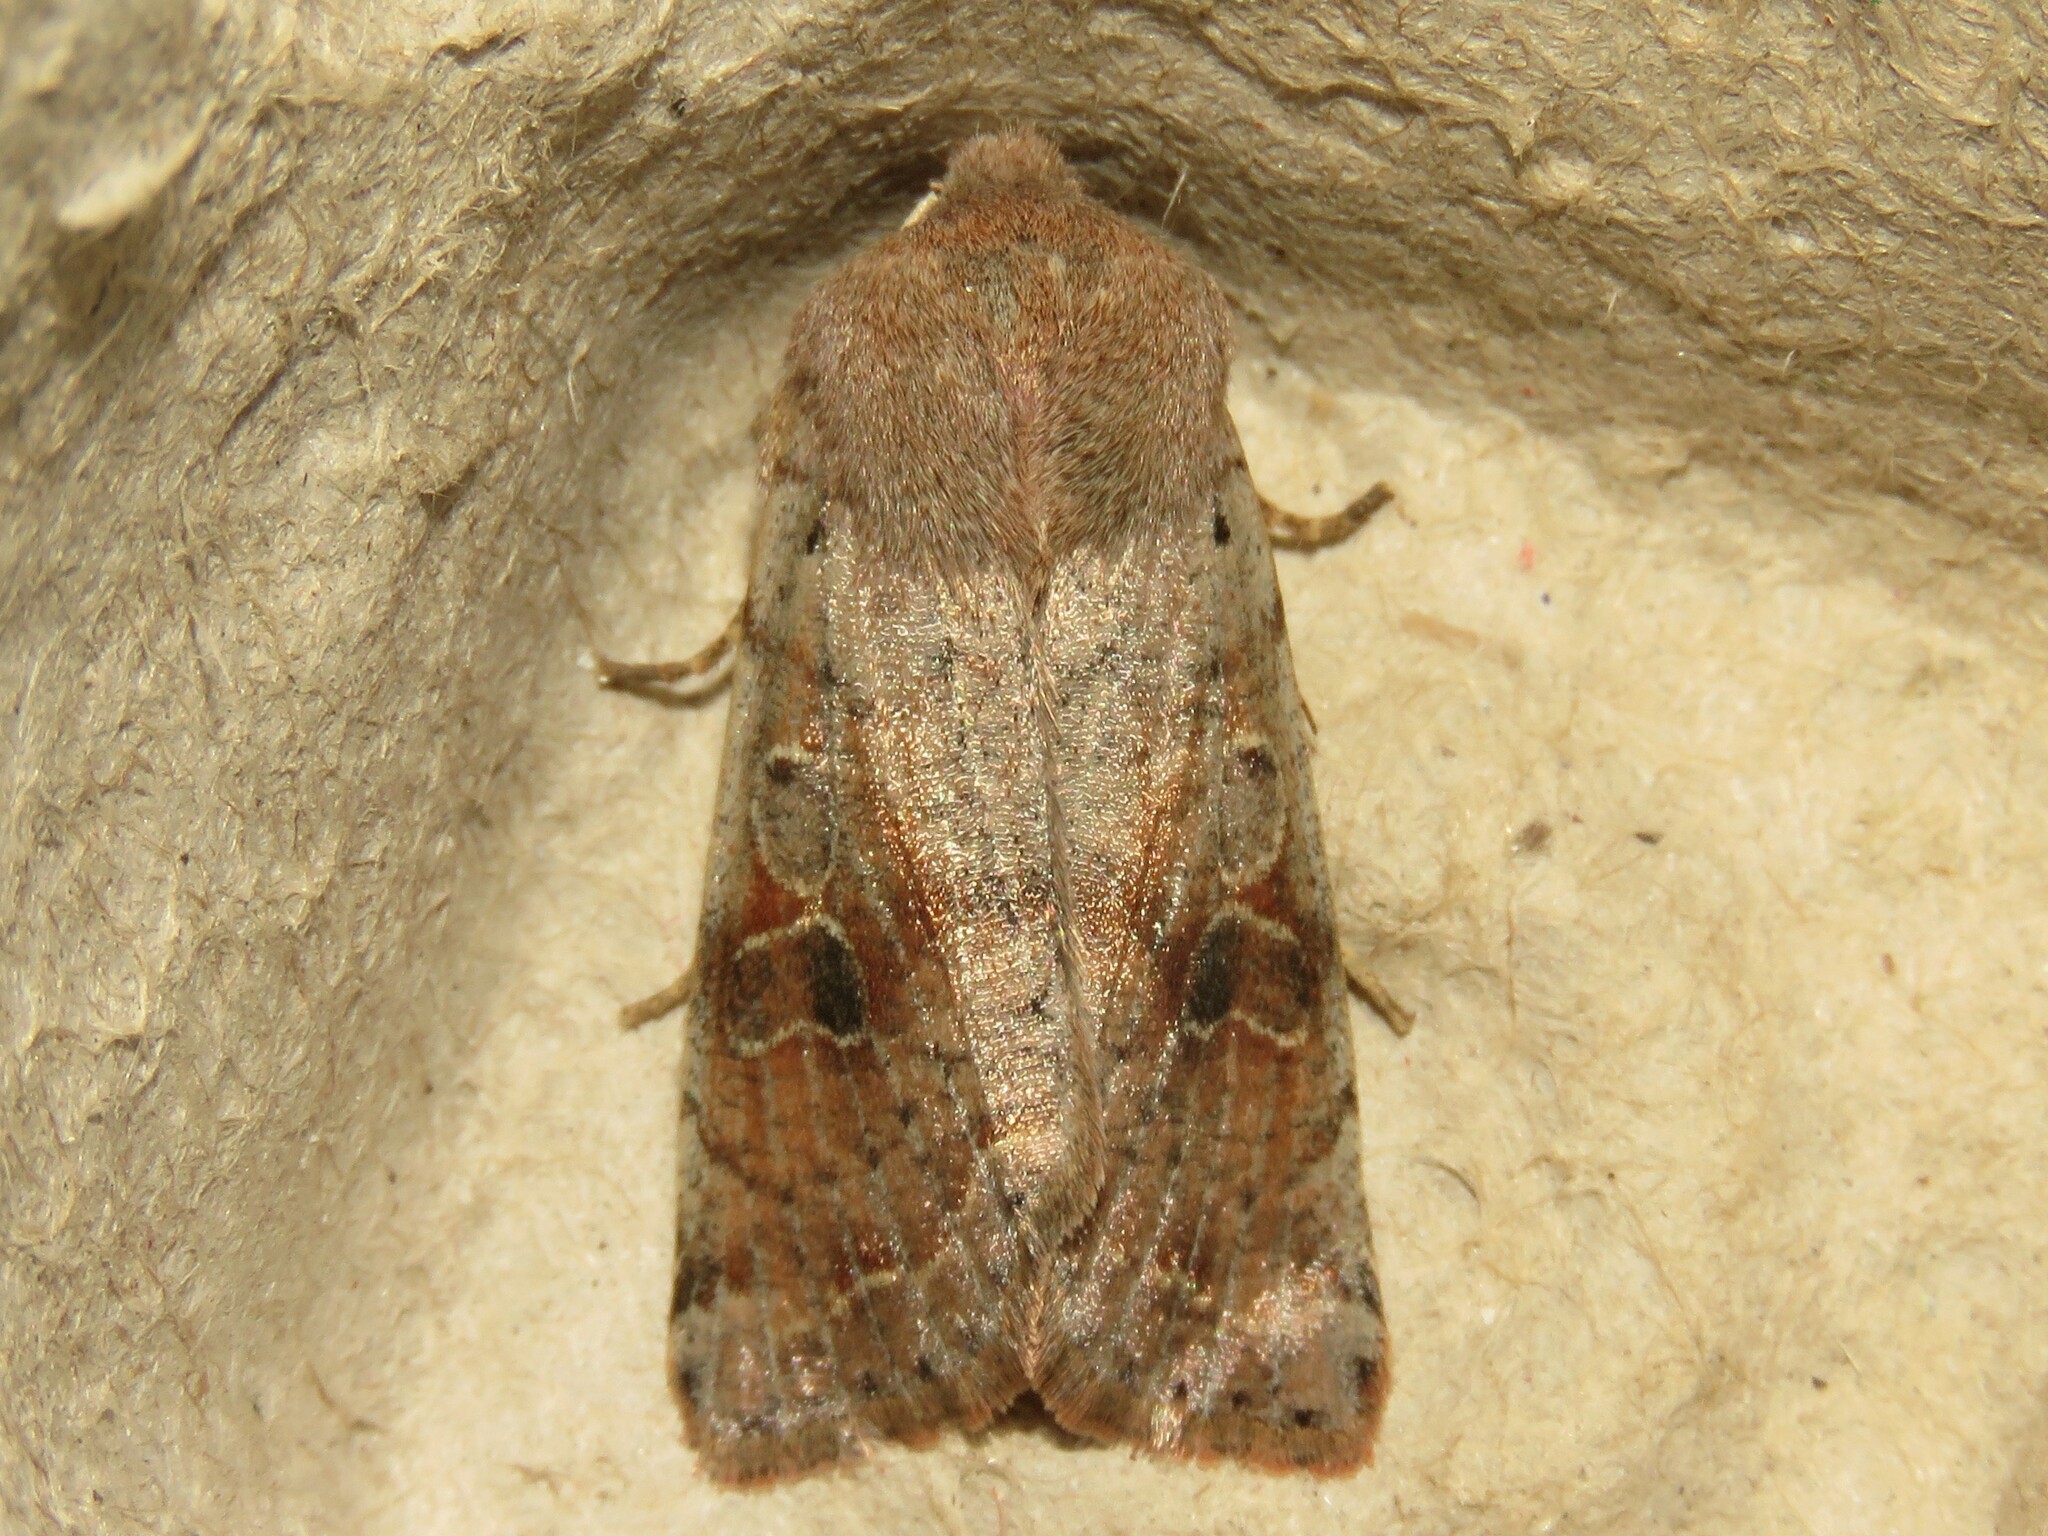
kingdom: Animalia
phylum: Arthropoda
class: Insecta
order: Lepidoptera
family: Noctuidae
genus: Orthosia
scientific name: Orthosia hibisci
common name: Green fruitworm
